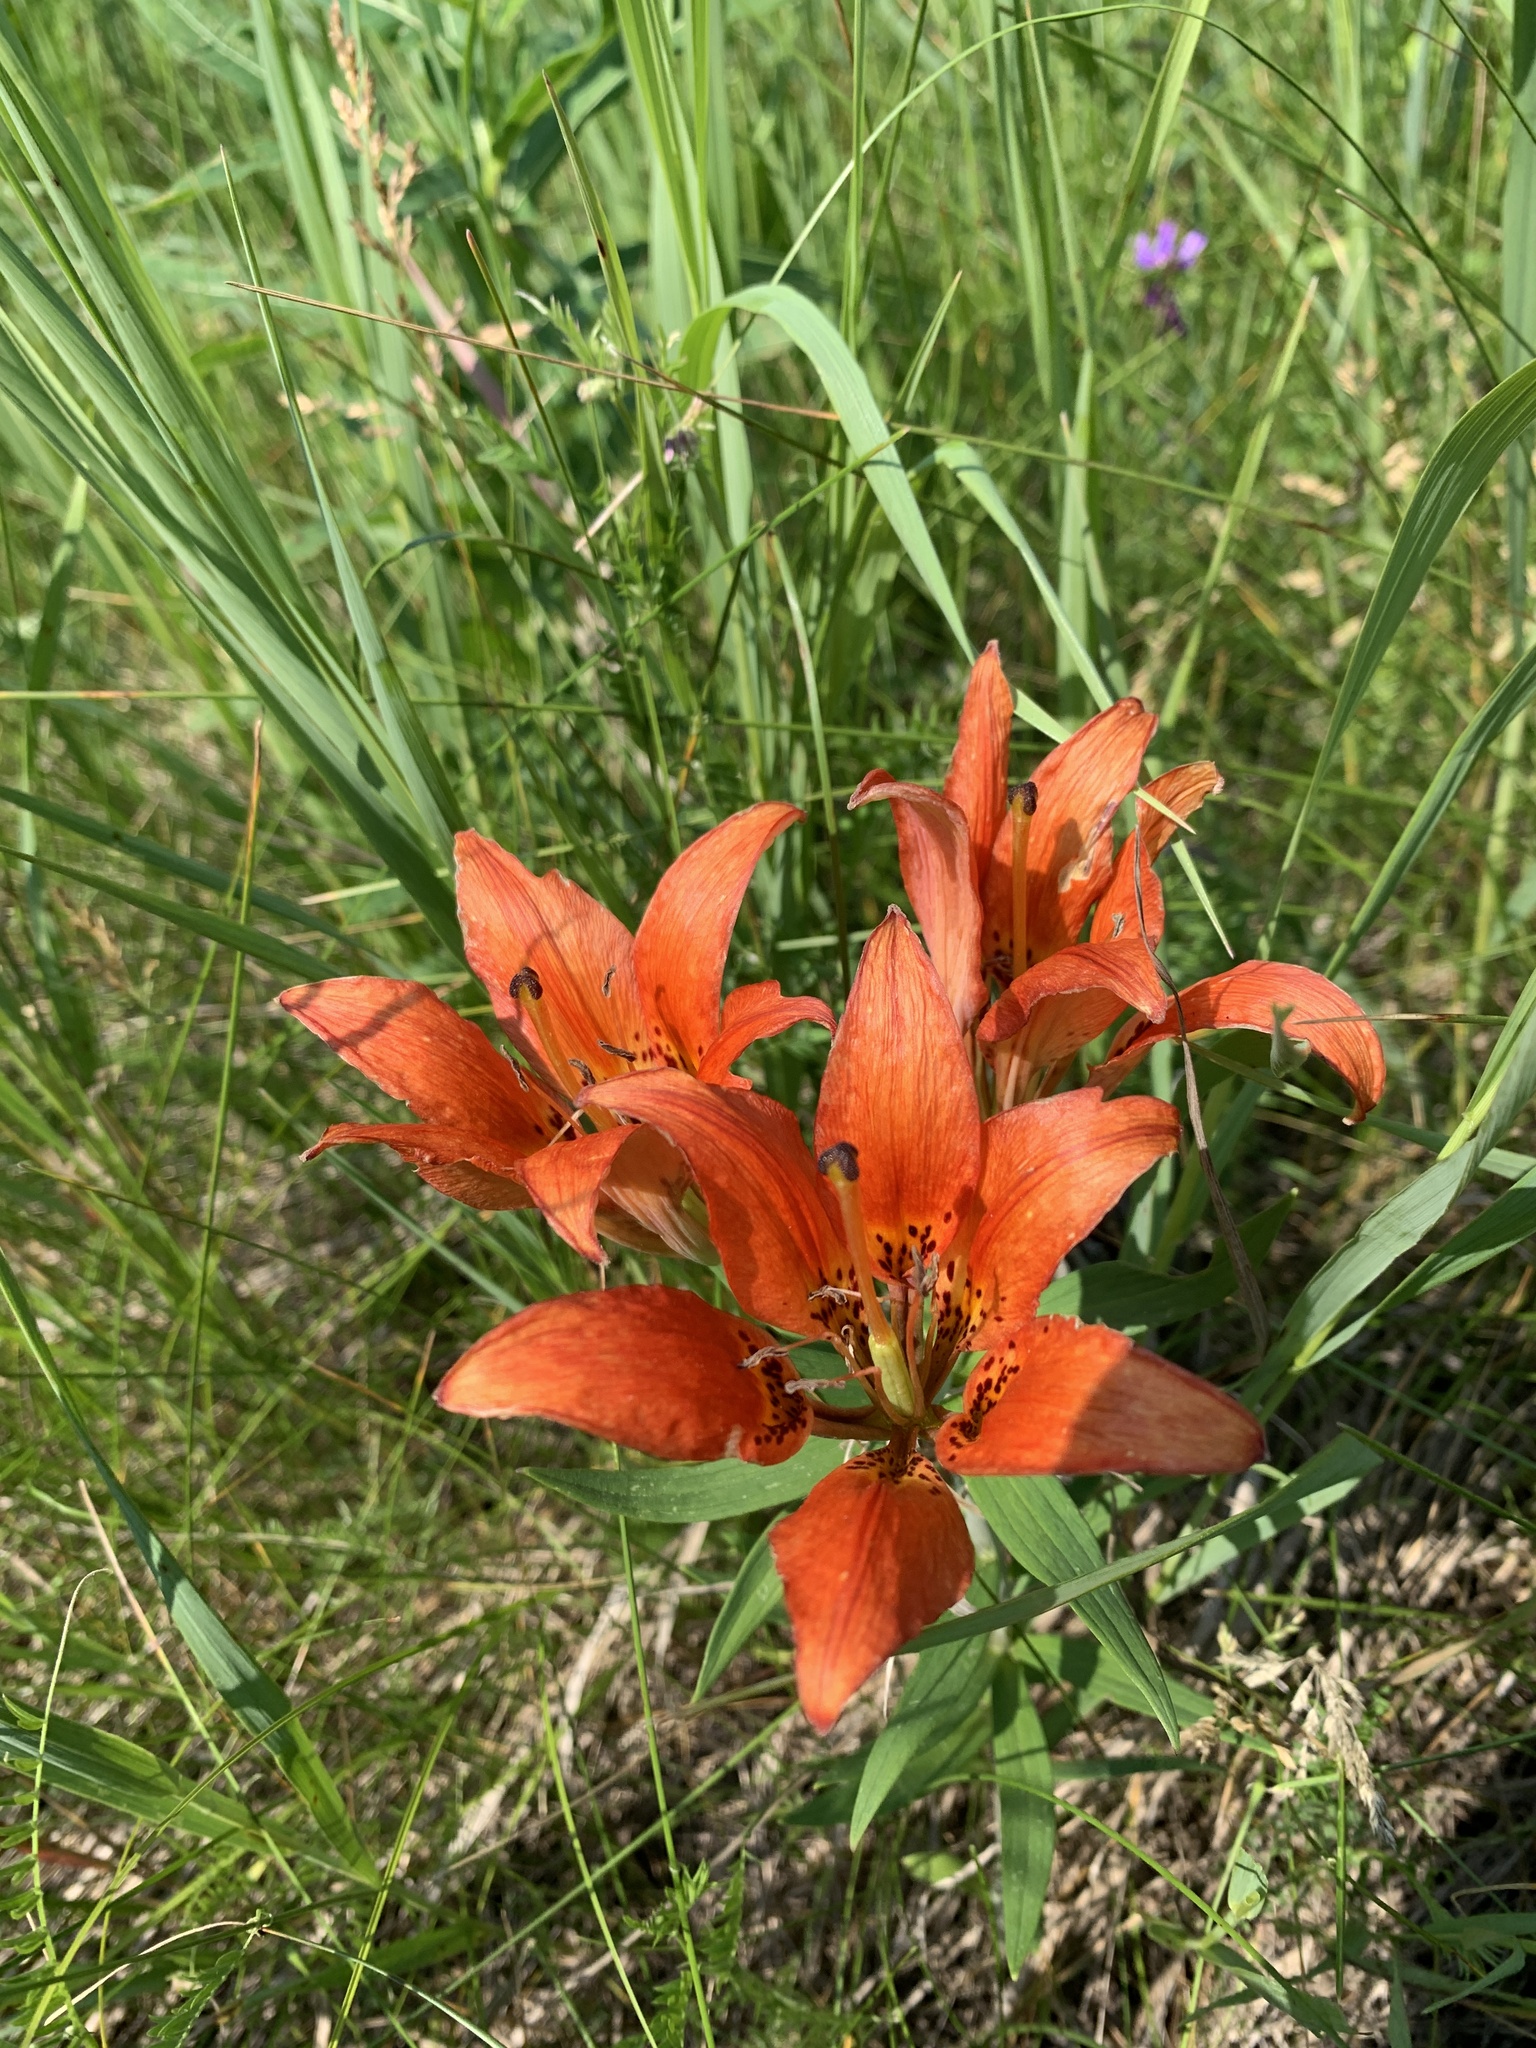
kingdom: Plantae
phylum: Tracheophyta
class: Liliopsida
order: Liliales
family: Liliaceae
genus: Lilium
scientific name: Lilium philadelphicum
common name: Red lily
